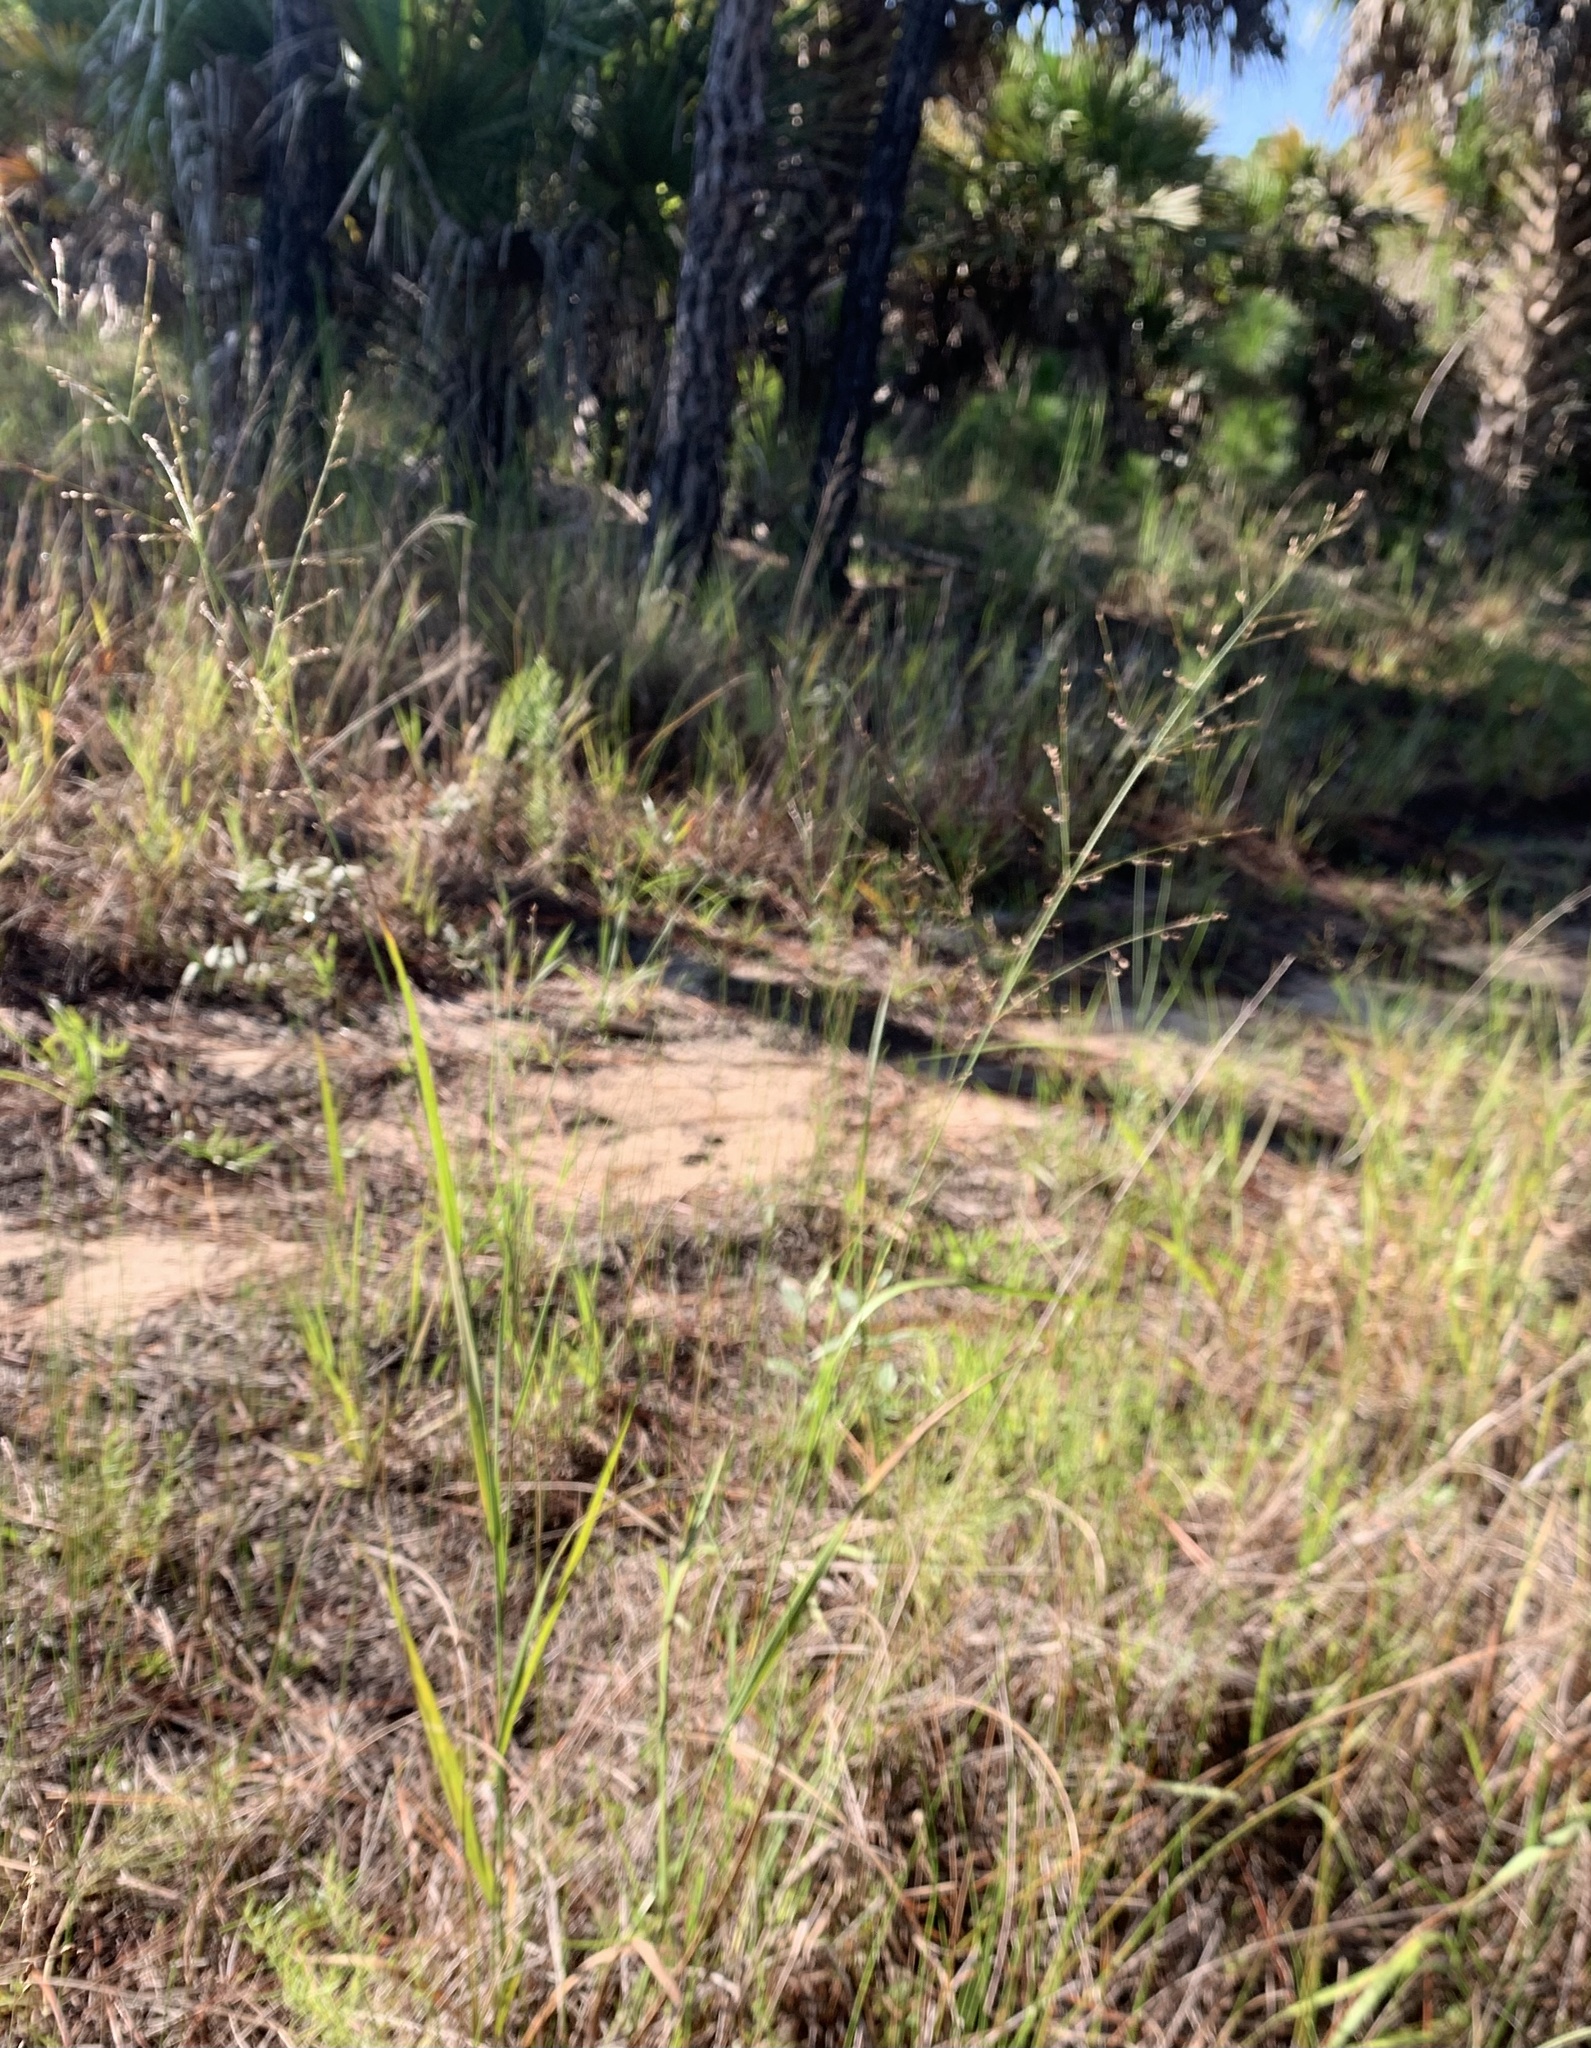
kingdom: Plantae
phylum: Tracheophyta
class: Liliopsida
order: Poales
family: Poaceae
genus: Panicum
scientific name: Panicum virgatum
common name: Switchgrass
